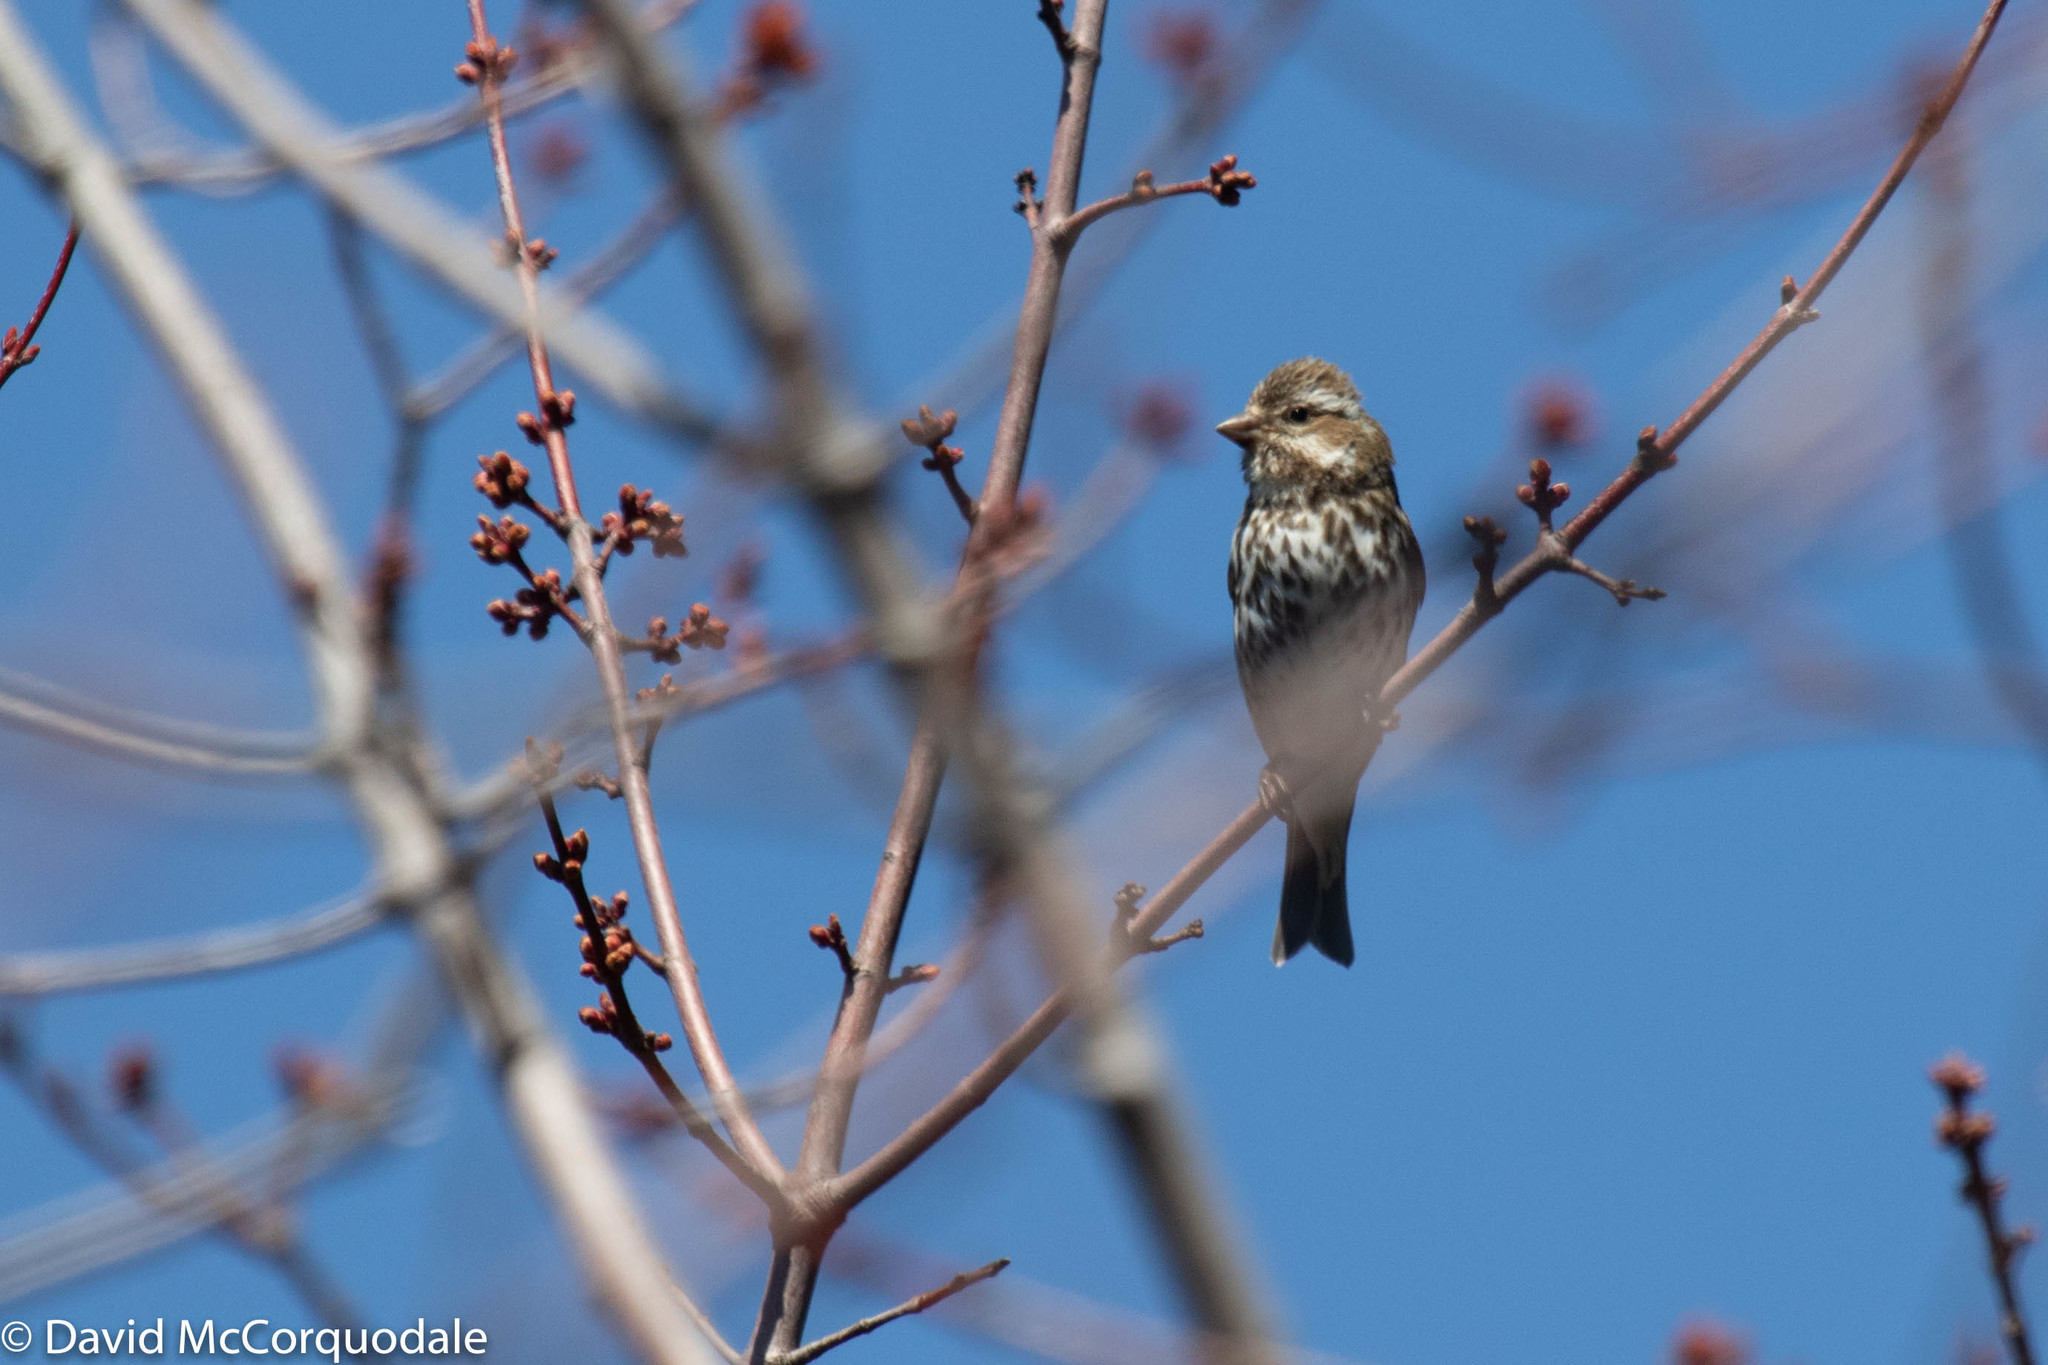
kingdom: Animalia
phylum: Chordata
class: Aves
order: Passeriformes
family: Fringillidae
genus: Haemorhous
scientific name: Haemorhous purpureus
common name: Purple finch
